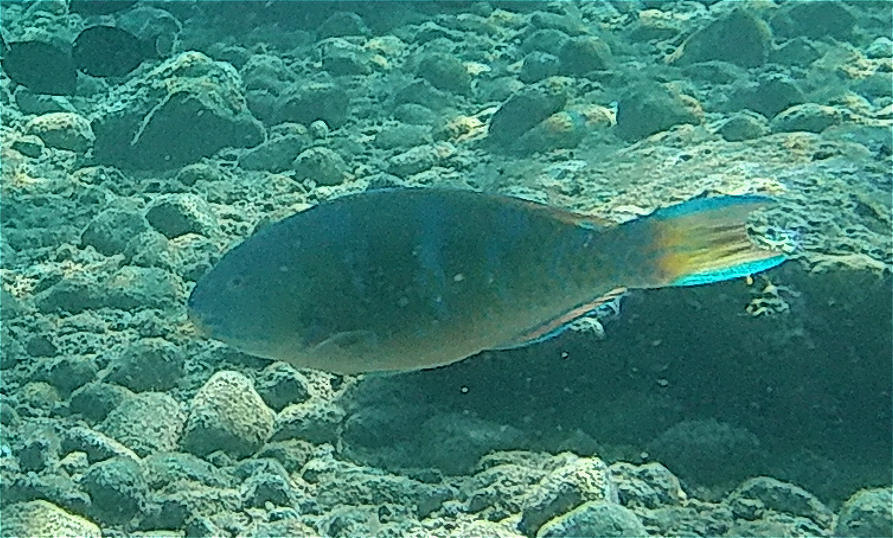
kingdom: Animalia
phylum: Chordata
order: Perciformes
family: Scaridae
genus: Scarus
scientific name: Scarus ghobban
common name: Blue-barred parrotfish
